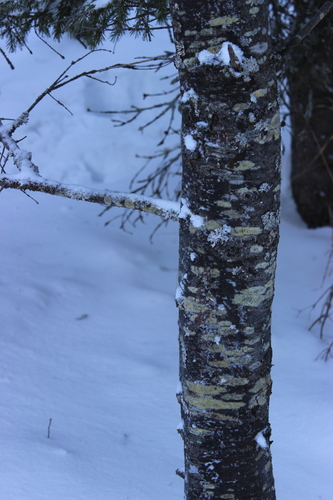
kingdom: Fungi
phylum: Ascomycota
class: Lecanoromycetes
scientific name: Lecanoromycetes
